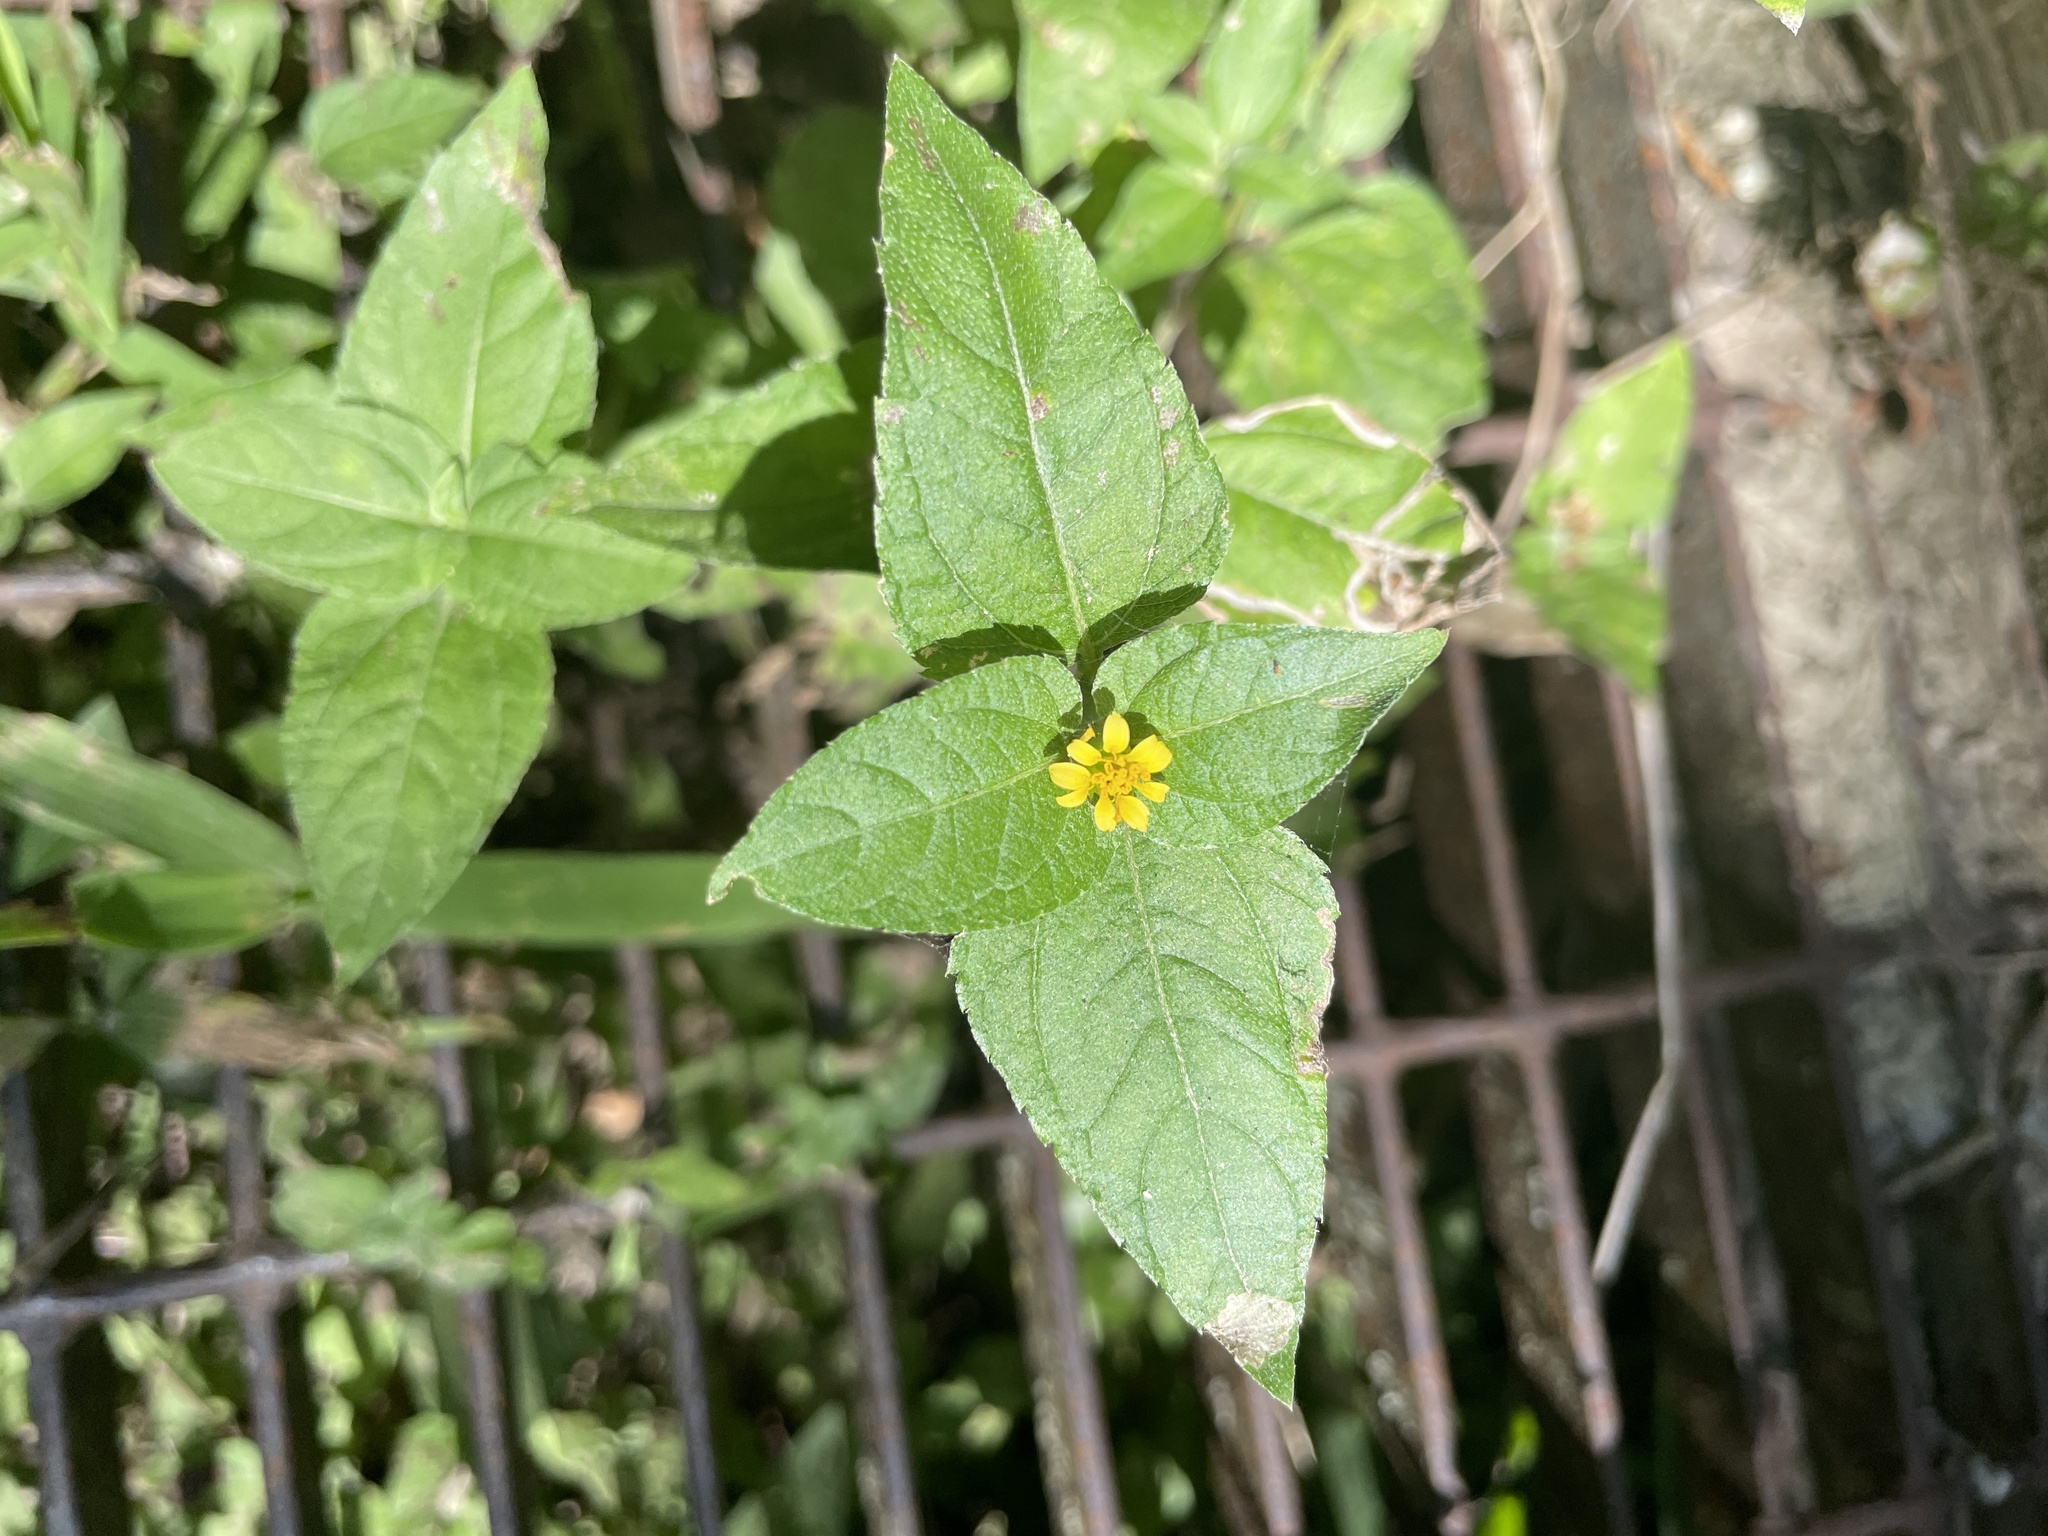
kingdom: Plantae
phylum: Tracheophyta
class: Magnoliopsida
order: Asterales
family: Asteraceae
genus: Calyptocarpus
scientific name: Calyptocarpus vialis
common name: Straggler daisy
